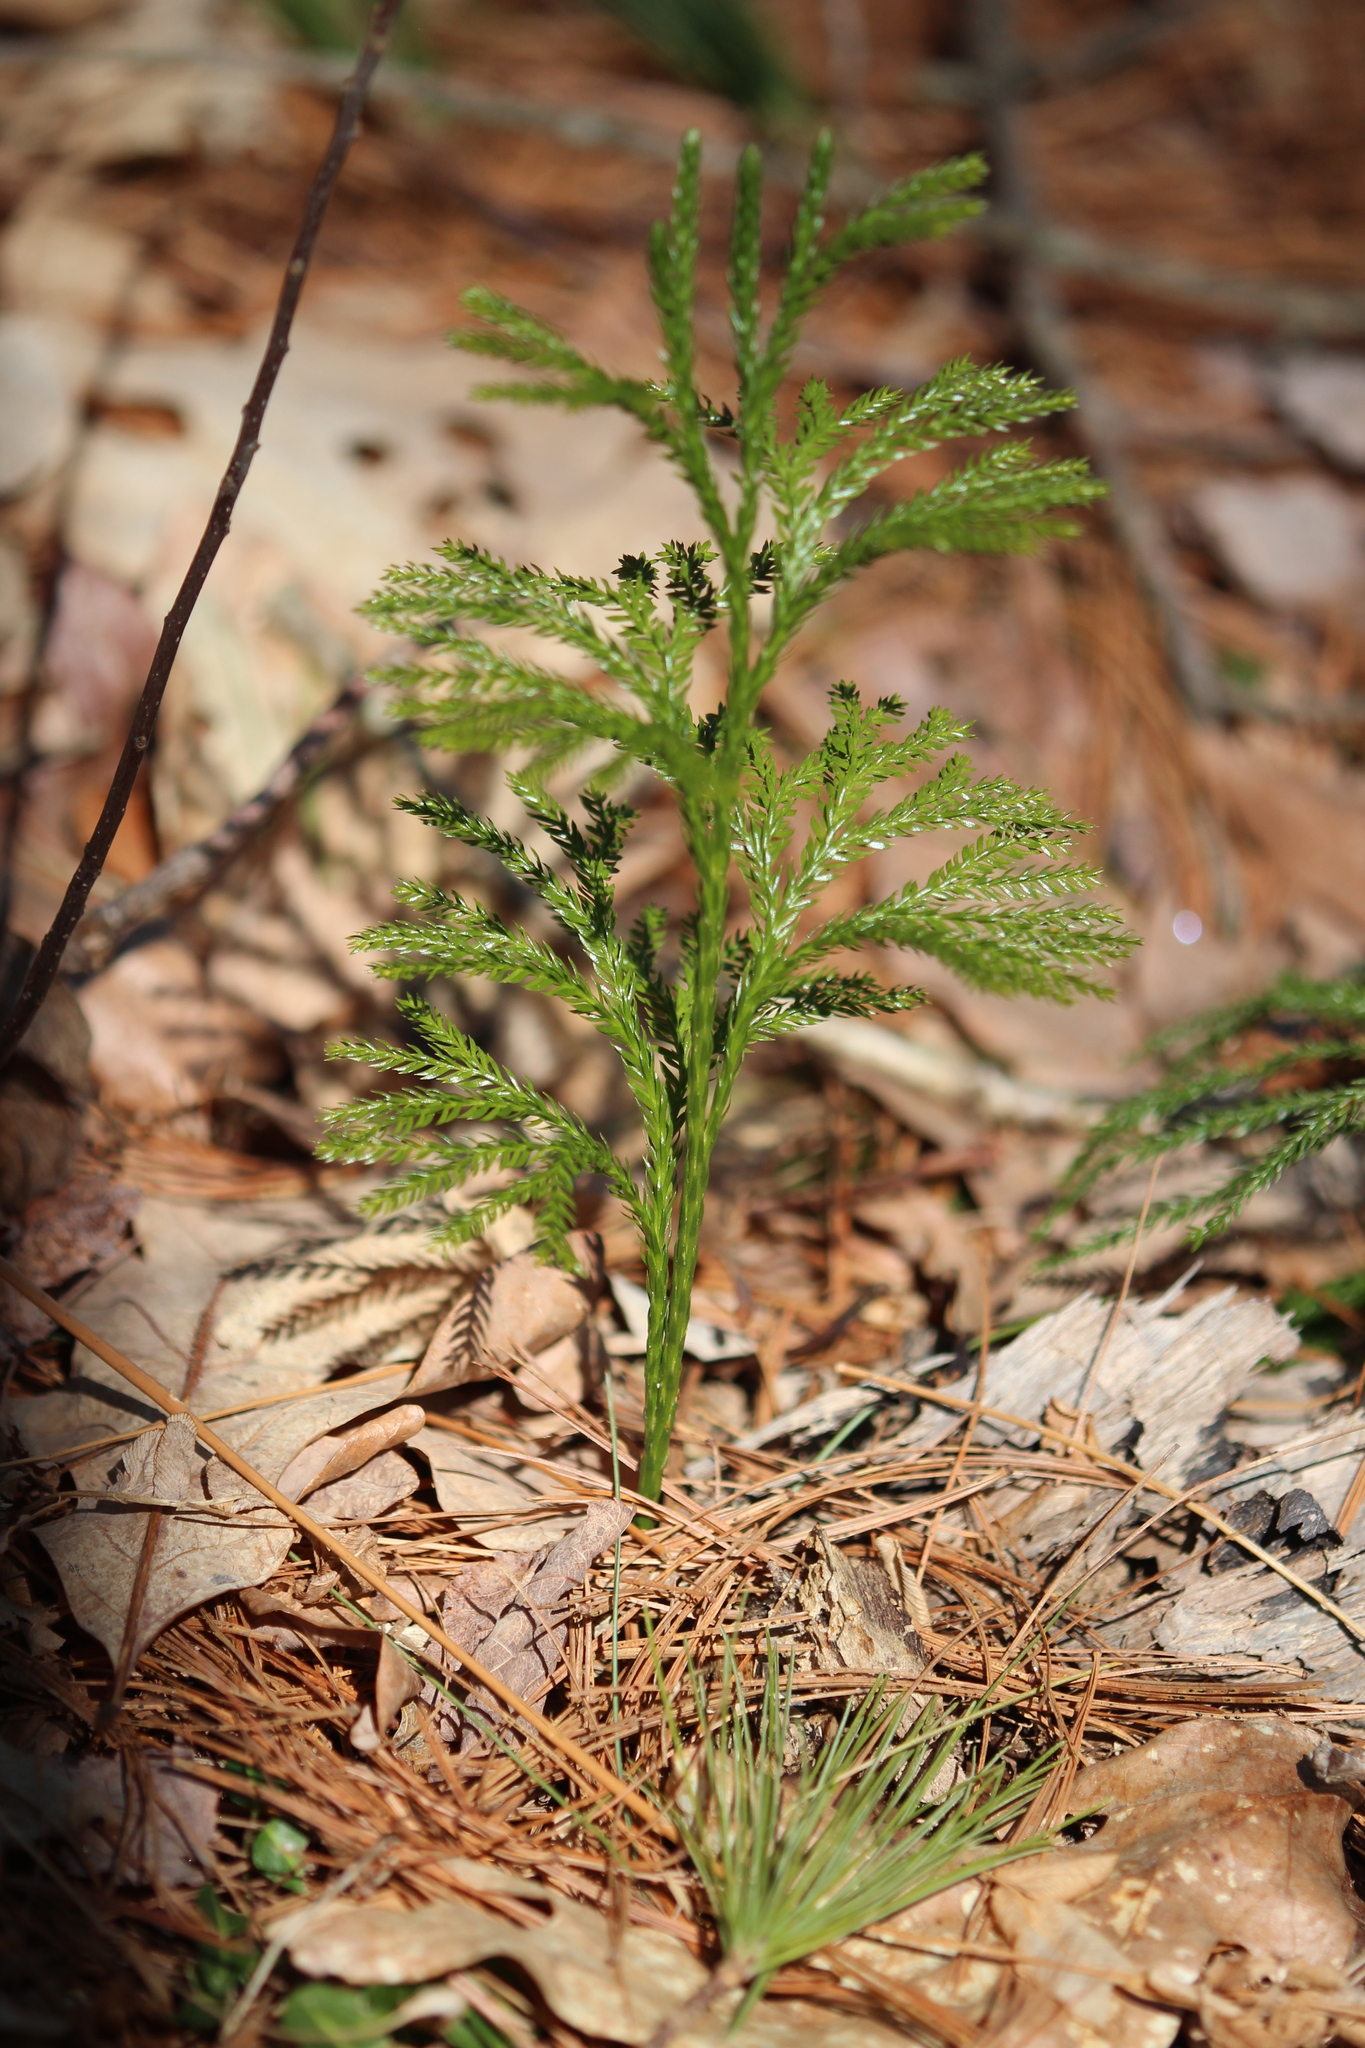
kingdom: Plantae
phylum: Tracheophyta
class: Lycopodiopsida
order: Lycopodiales
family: Lycopodiaceae
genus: Dendrolycopodium
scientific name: Dendrolycopodium obscurum
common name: Common ground-pine
